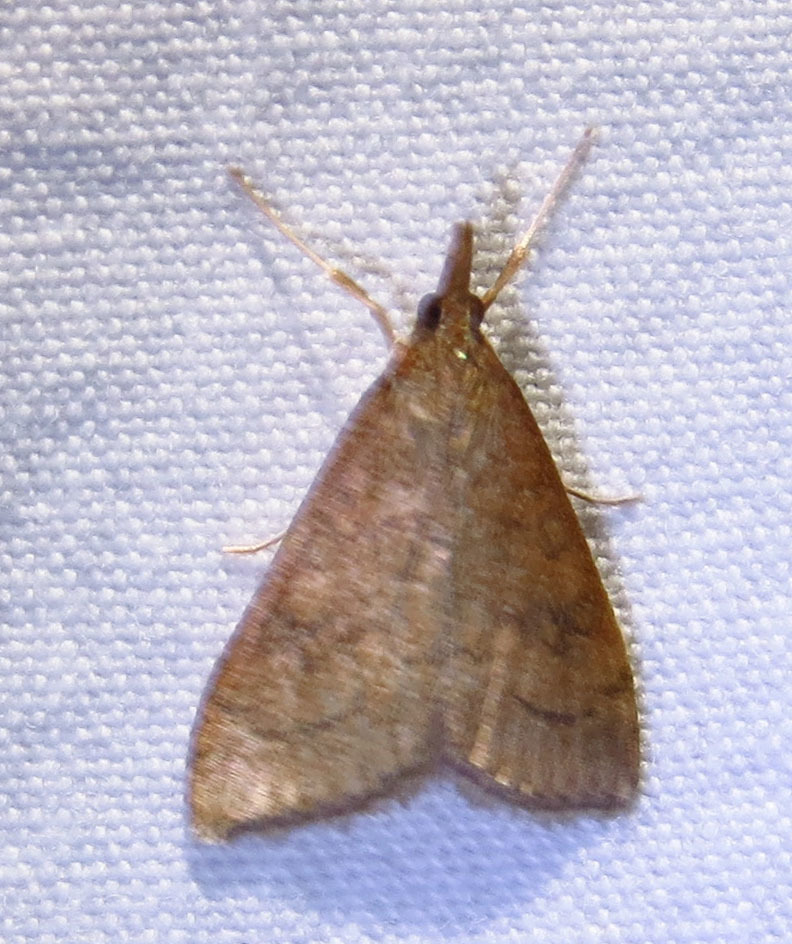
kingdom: Animalia
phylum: Arthropoda
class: Insecta
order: Lepidoptera
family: Crambidae
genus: Udea
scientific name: Udea rubigalis
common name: Celery leaftier moth
